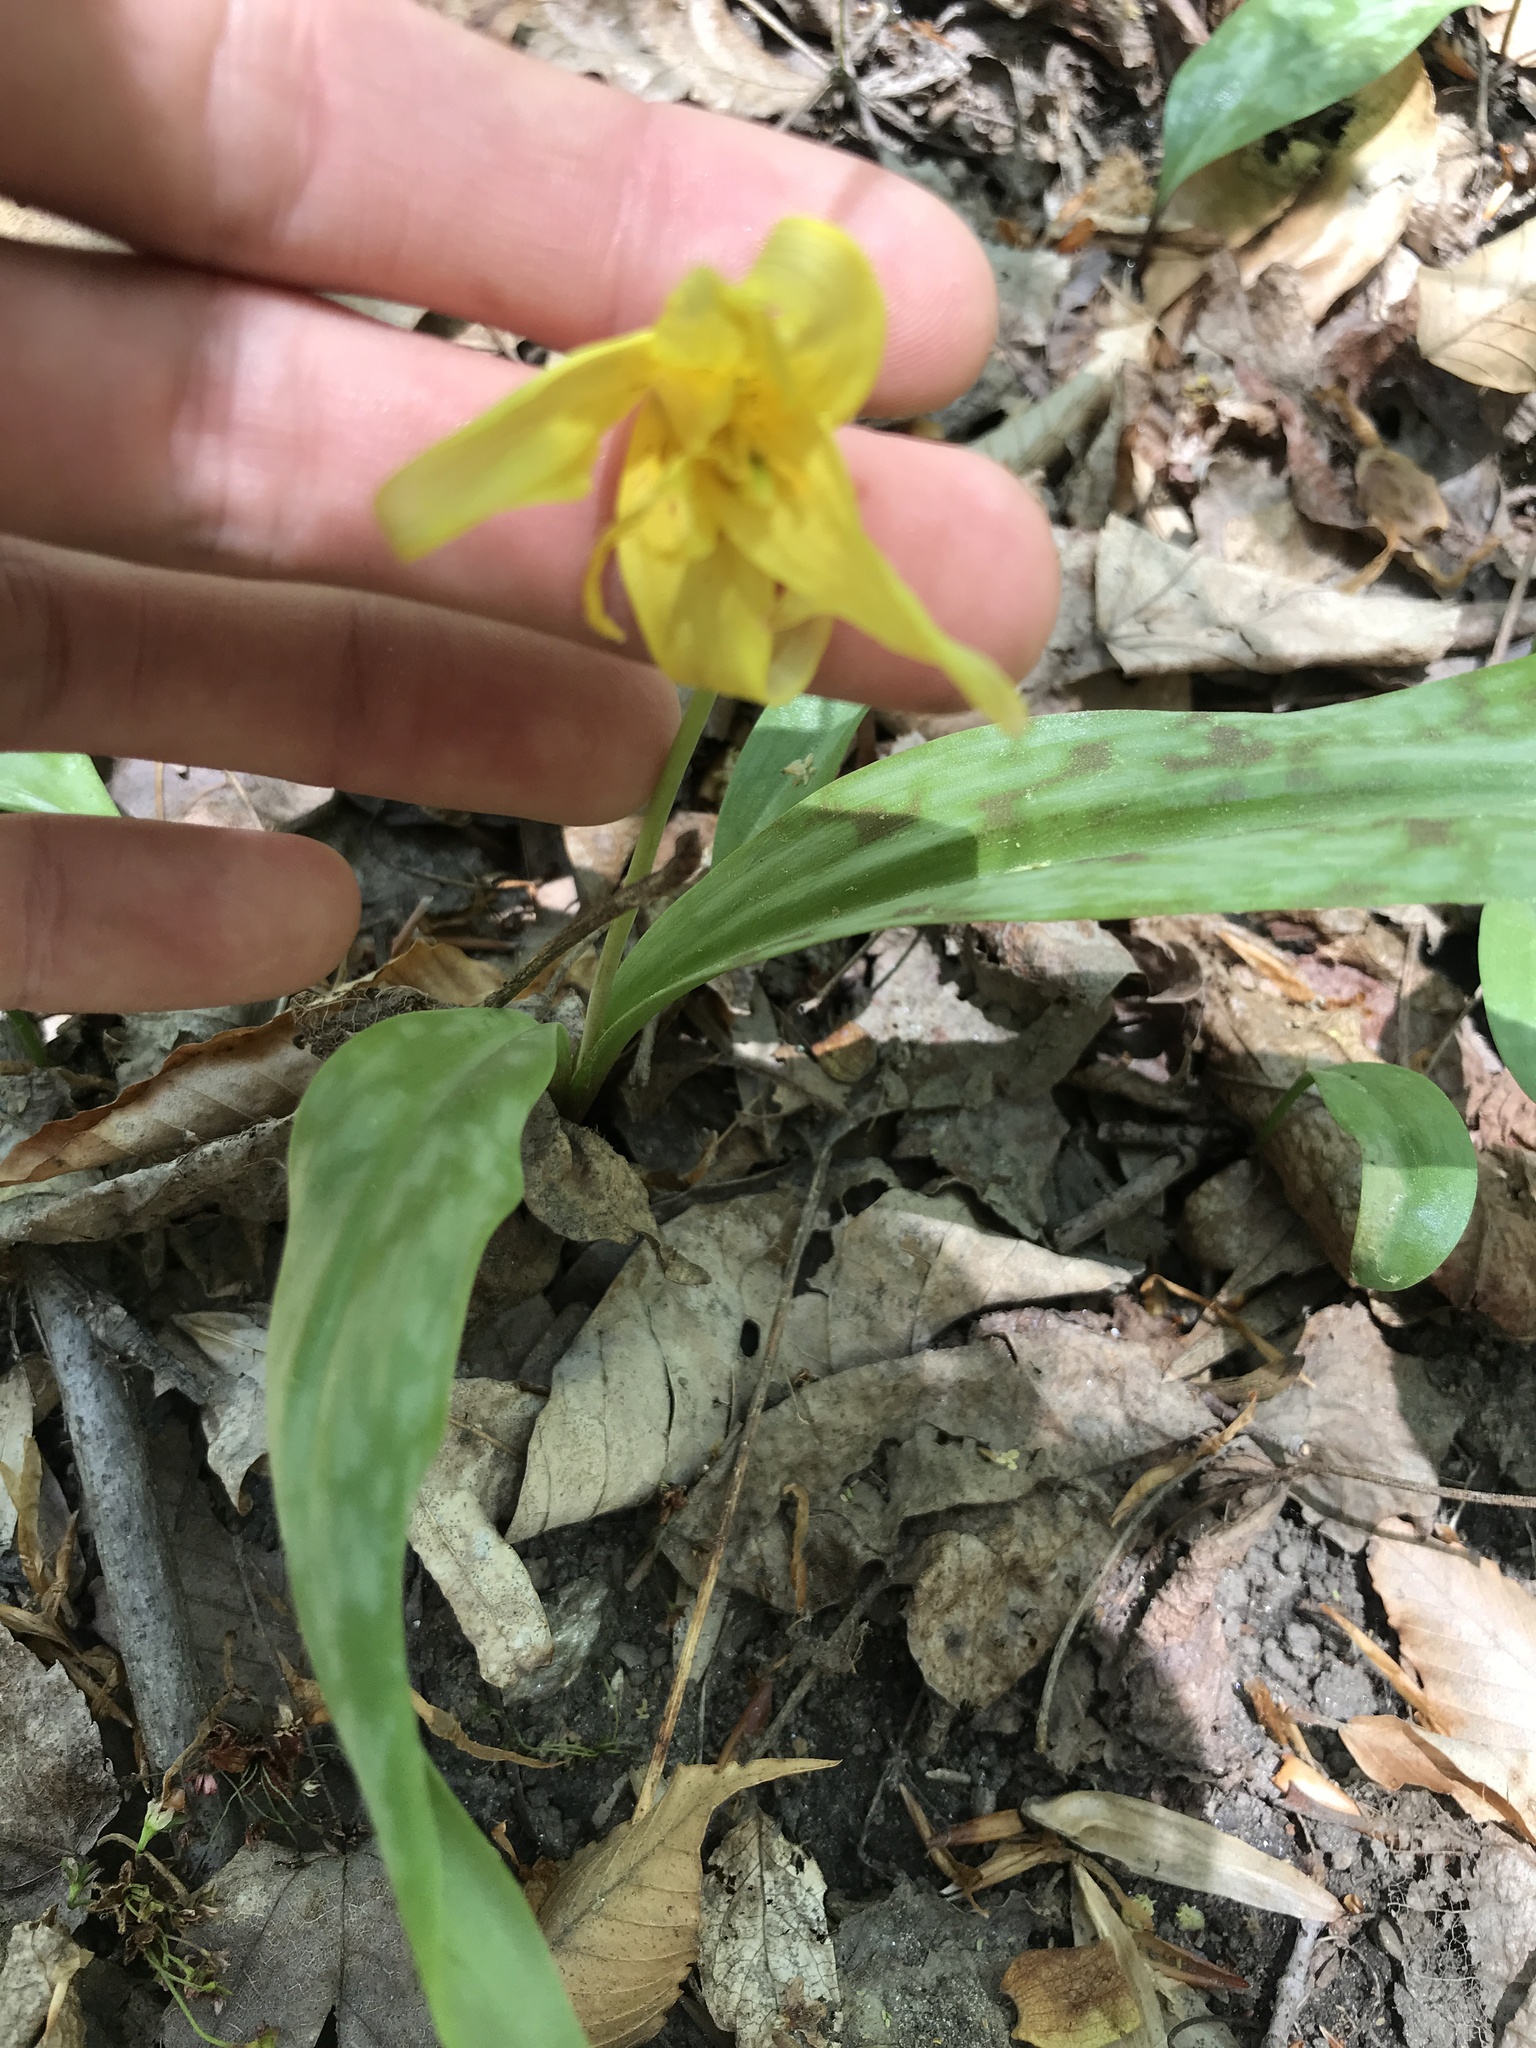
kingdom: Plantae
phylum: Tracheophyta
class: Liliopsida
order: Liliales
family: Liliaceae
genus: Erythronium
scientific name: Erythronium americanum
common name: Yellow adder's-tongue
